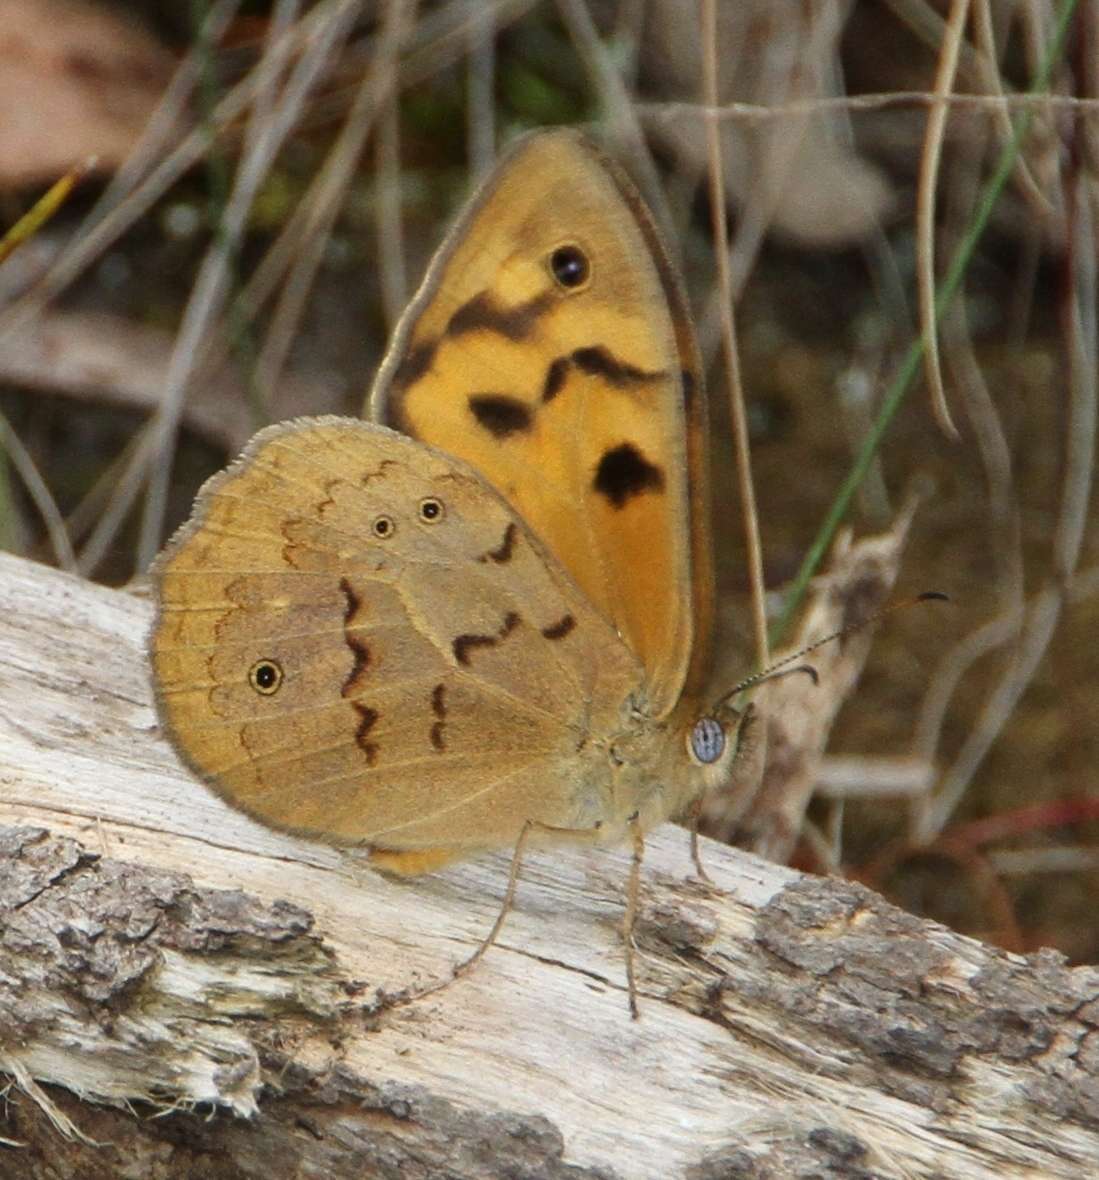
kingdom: Animalia
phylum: Arthropoda
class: Insecta
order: Lepidoptera
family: Nymphalidae
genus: Heteronympha
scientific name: Heteronympha merope
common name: Common brown
